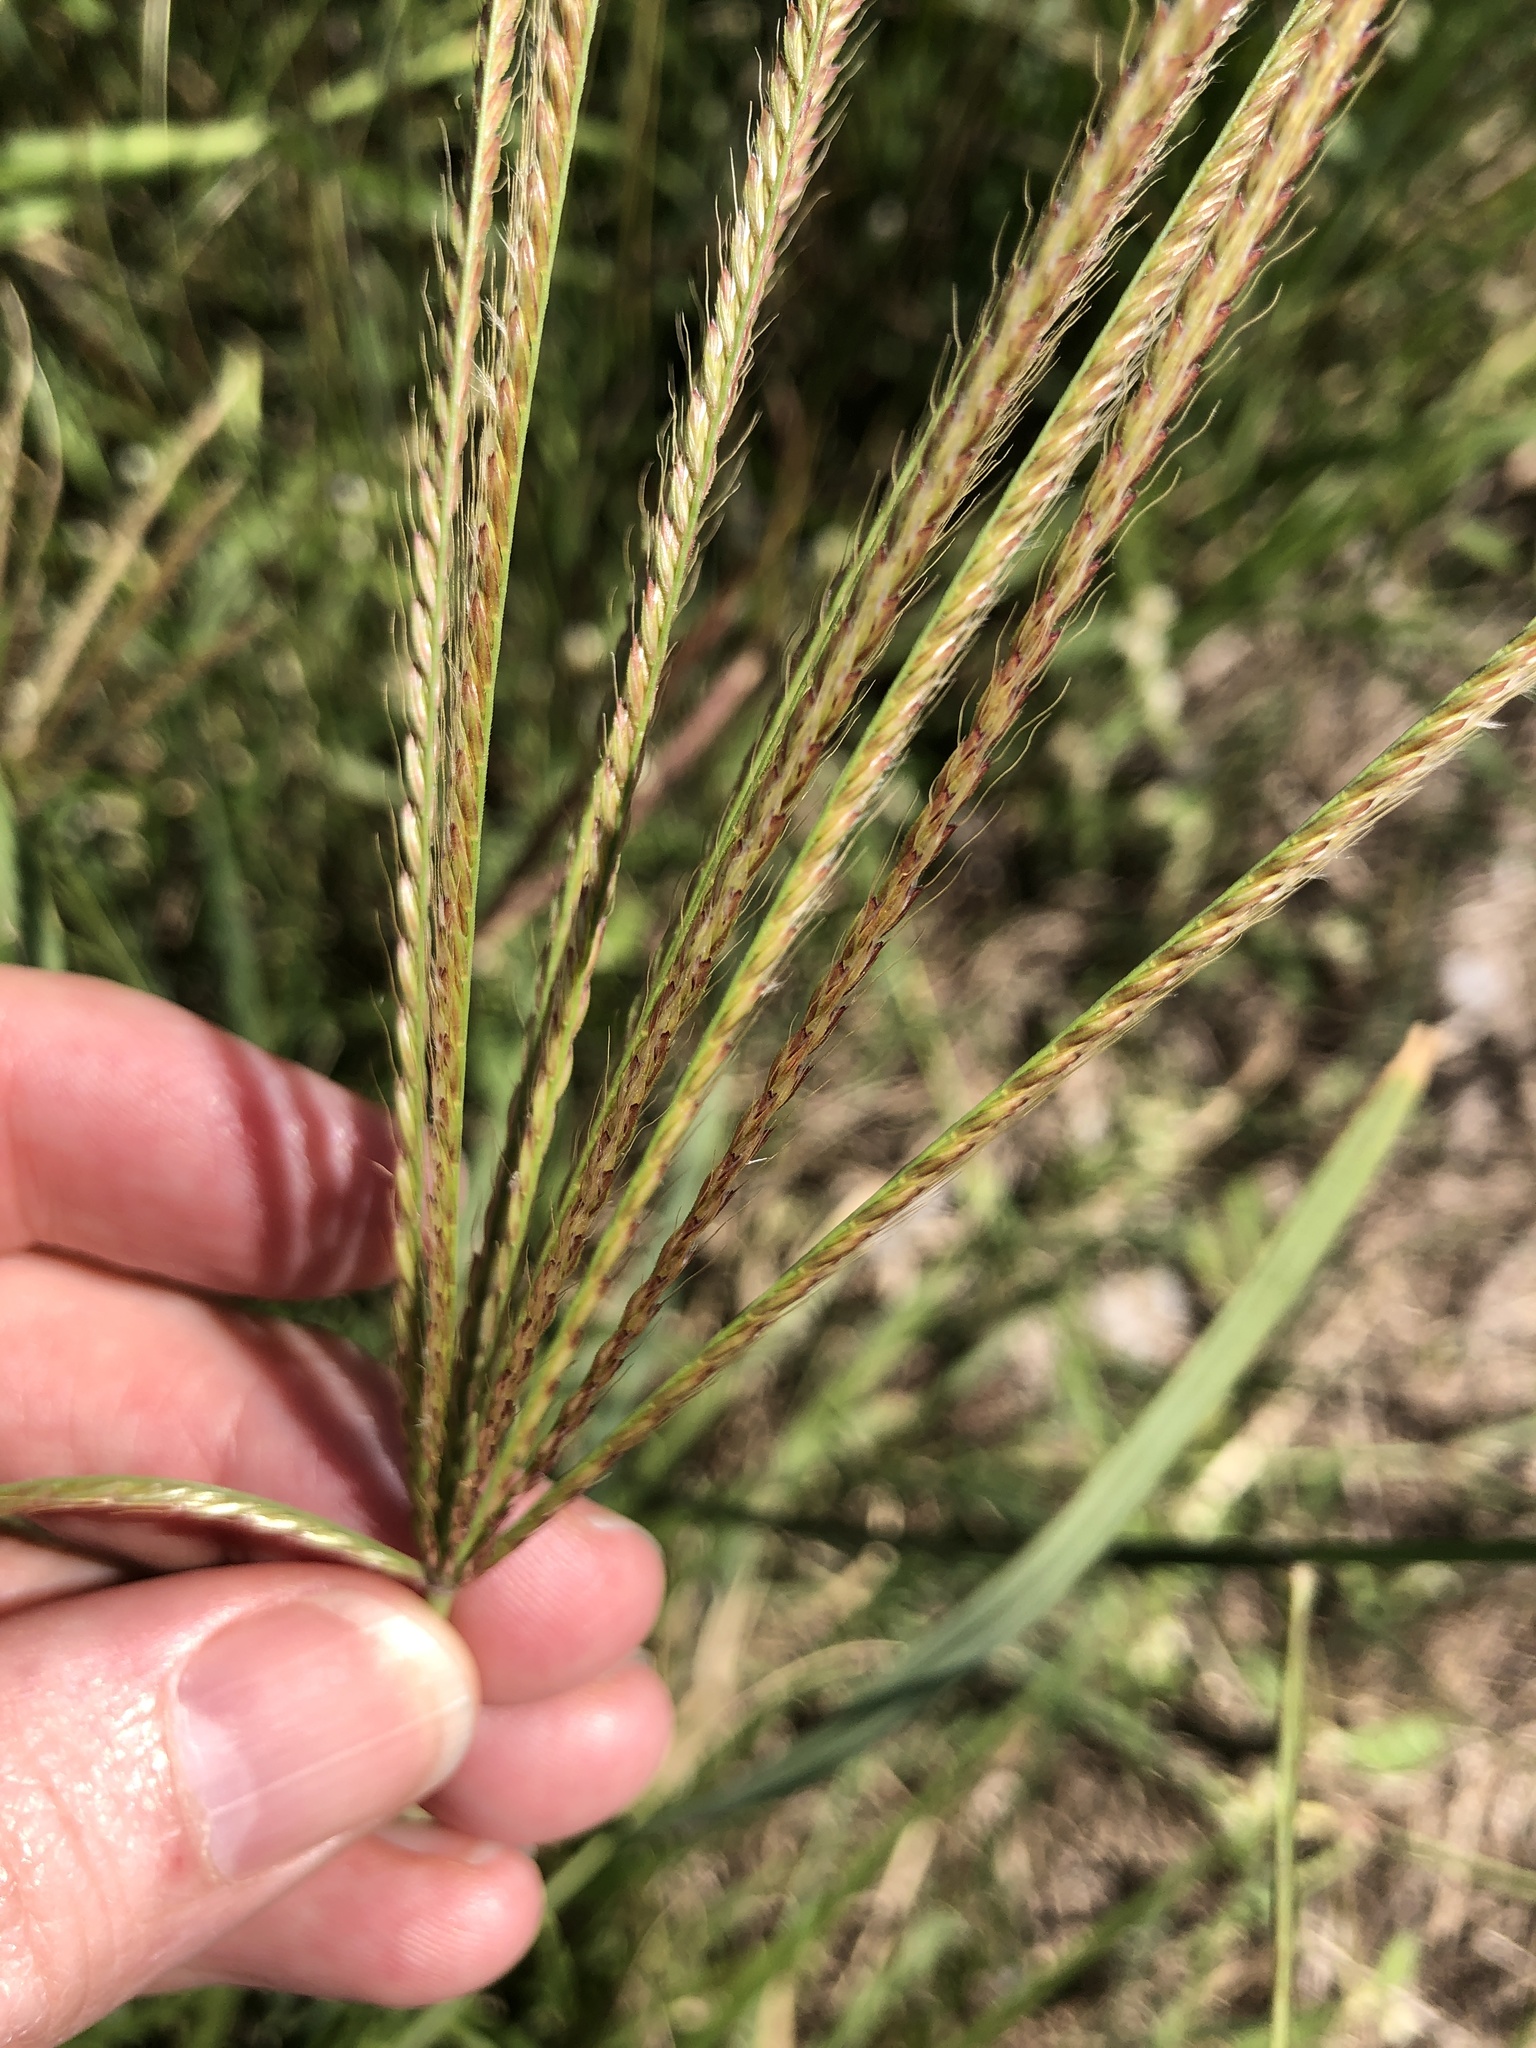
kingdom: Plantae
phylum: Tracheophyta
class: Liliopsida
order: Poales
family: Poaceae
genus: Chloris
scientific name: Chloris gayana
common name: Rhodes grass
